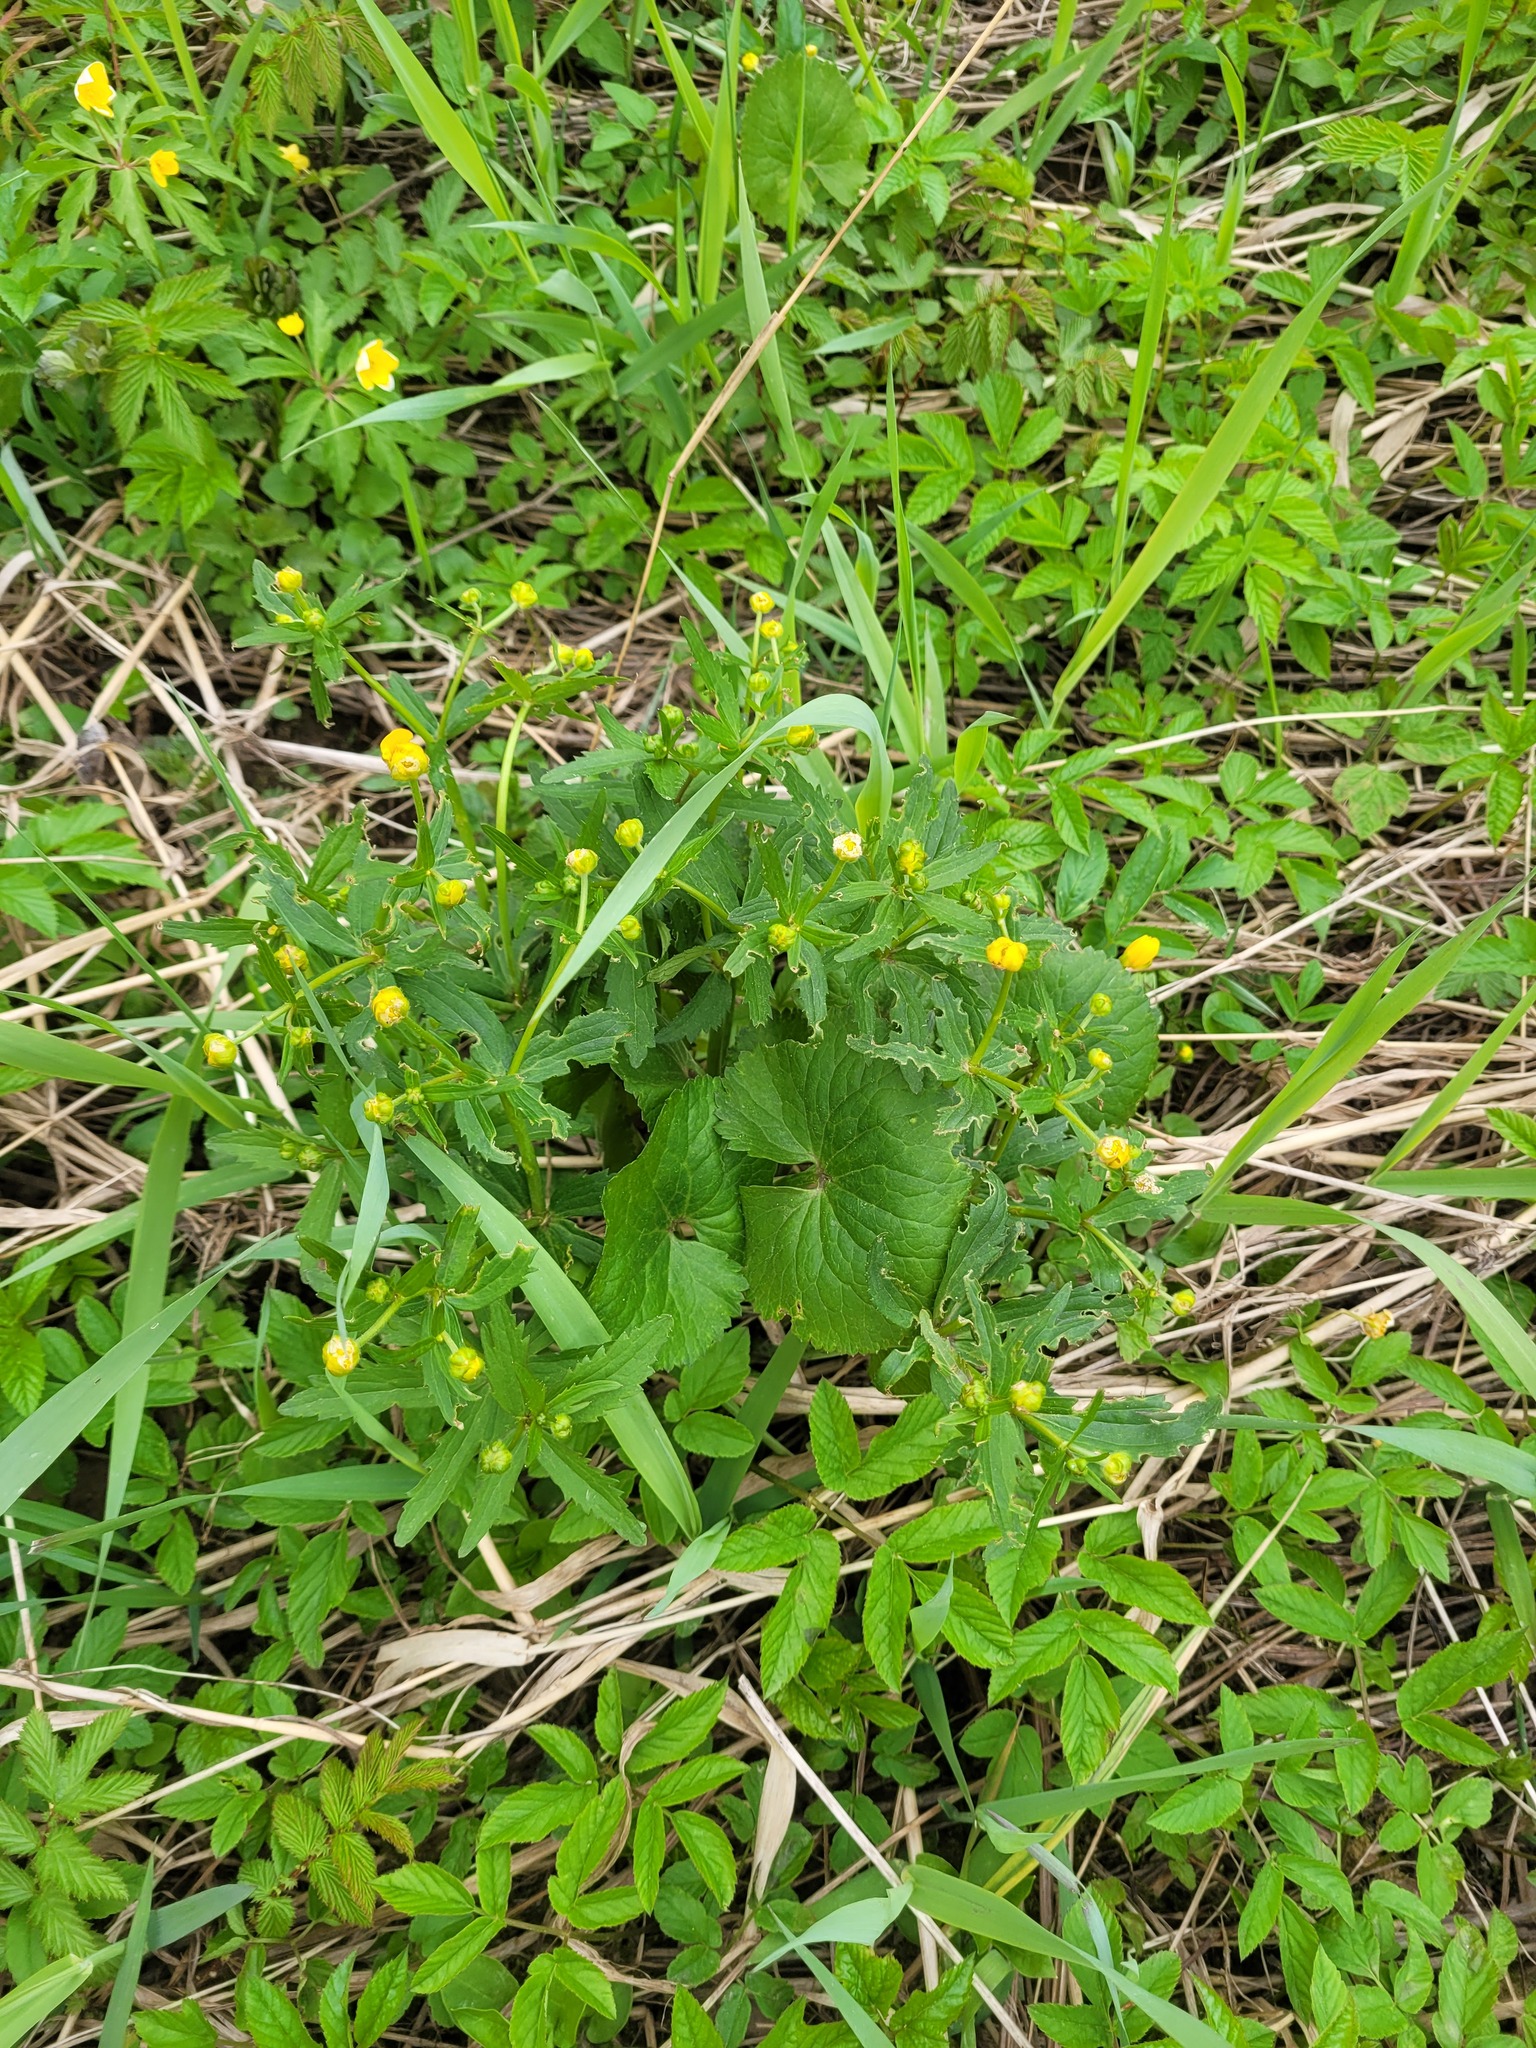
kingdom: Plantae
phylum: Tracheophyta
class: Magnoliopsida
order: Ranunculales
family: Ranunculaceae
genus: Ranunculus
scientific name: Ranunculus cassubicus
